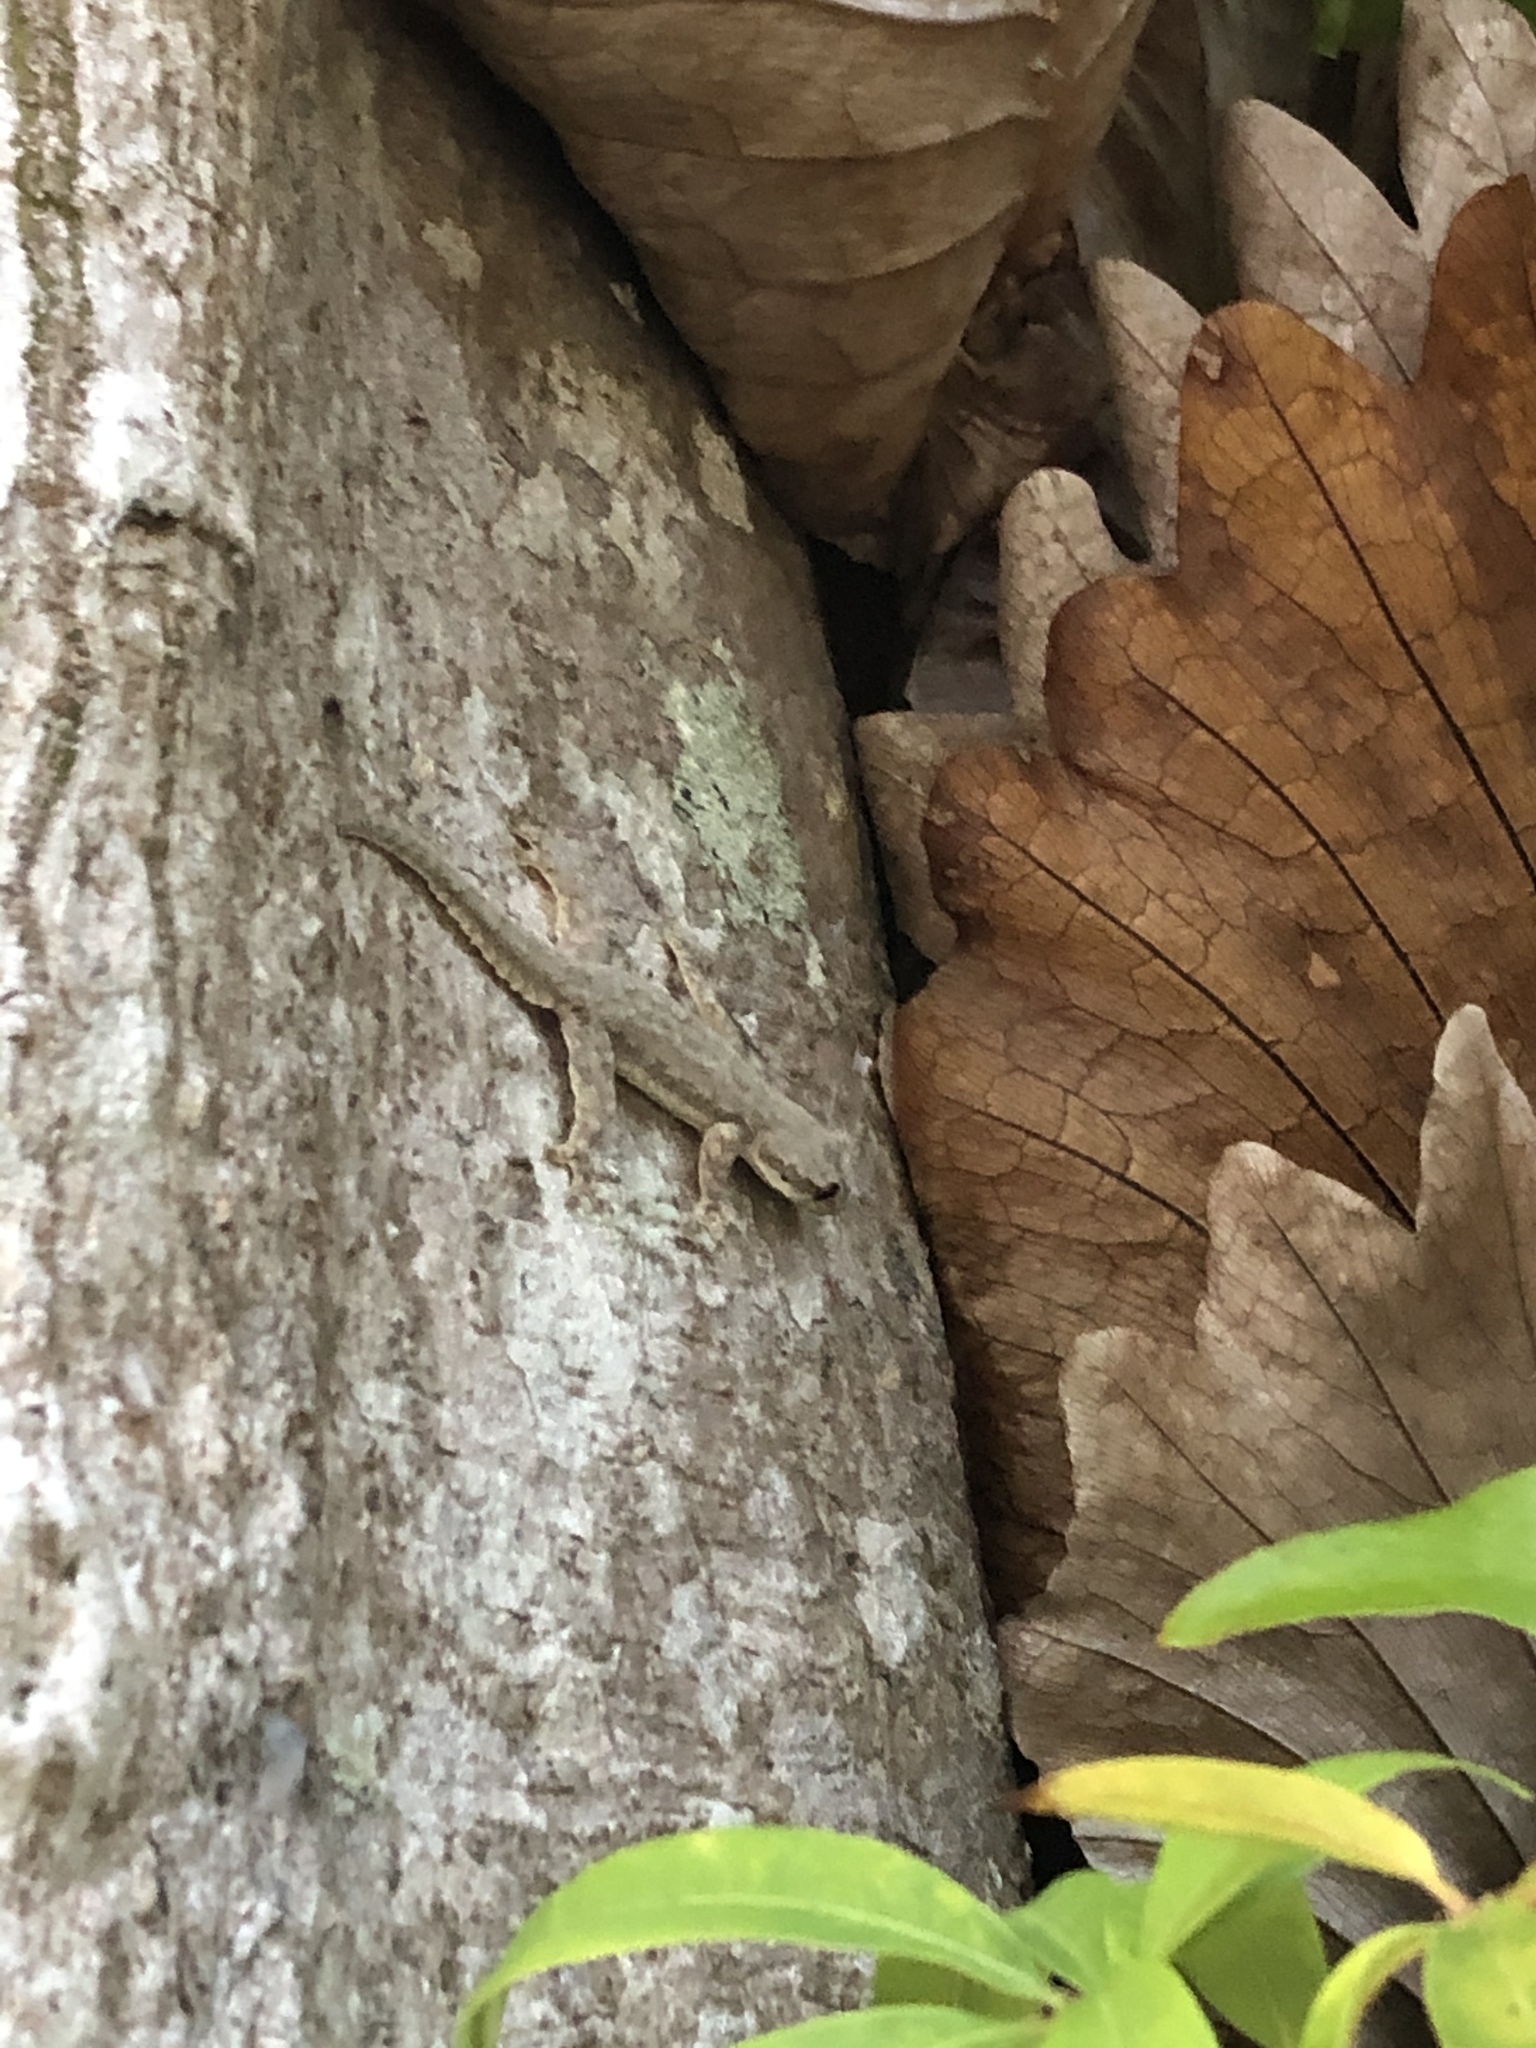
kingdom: Animalia
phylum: Chordata
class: Squamata
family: Gekkonidae
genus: Hemidactylus
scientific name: Hemidactylus platyurus
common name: Flat-tailed house gecko
